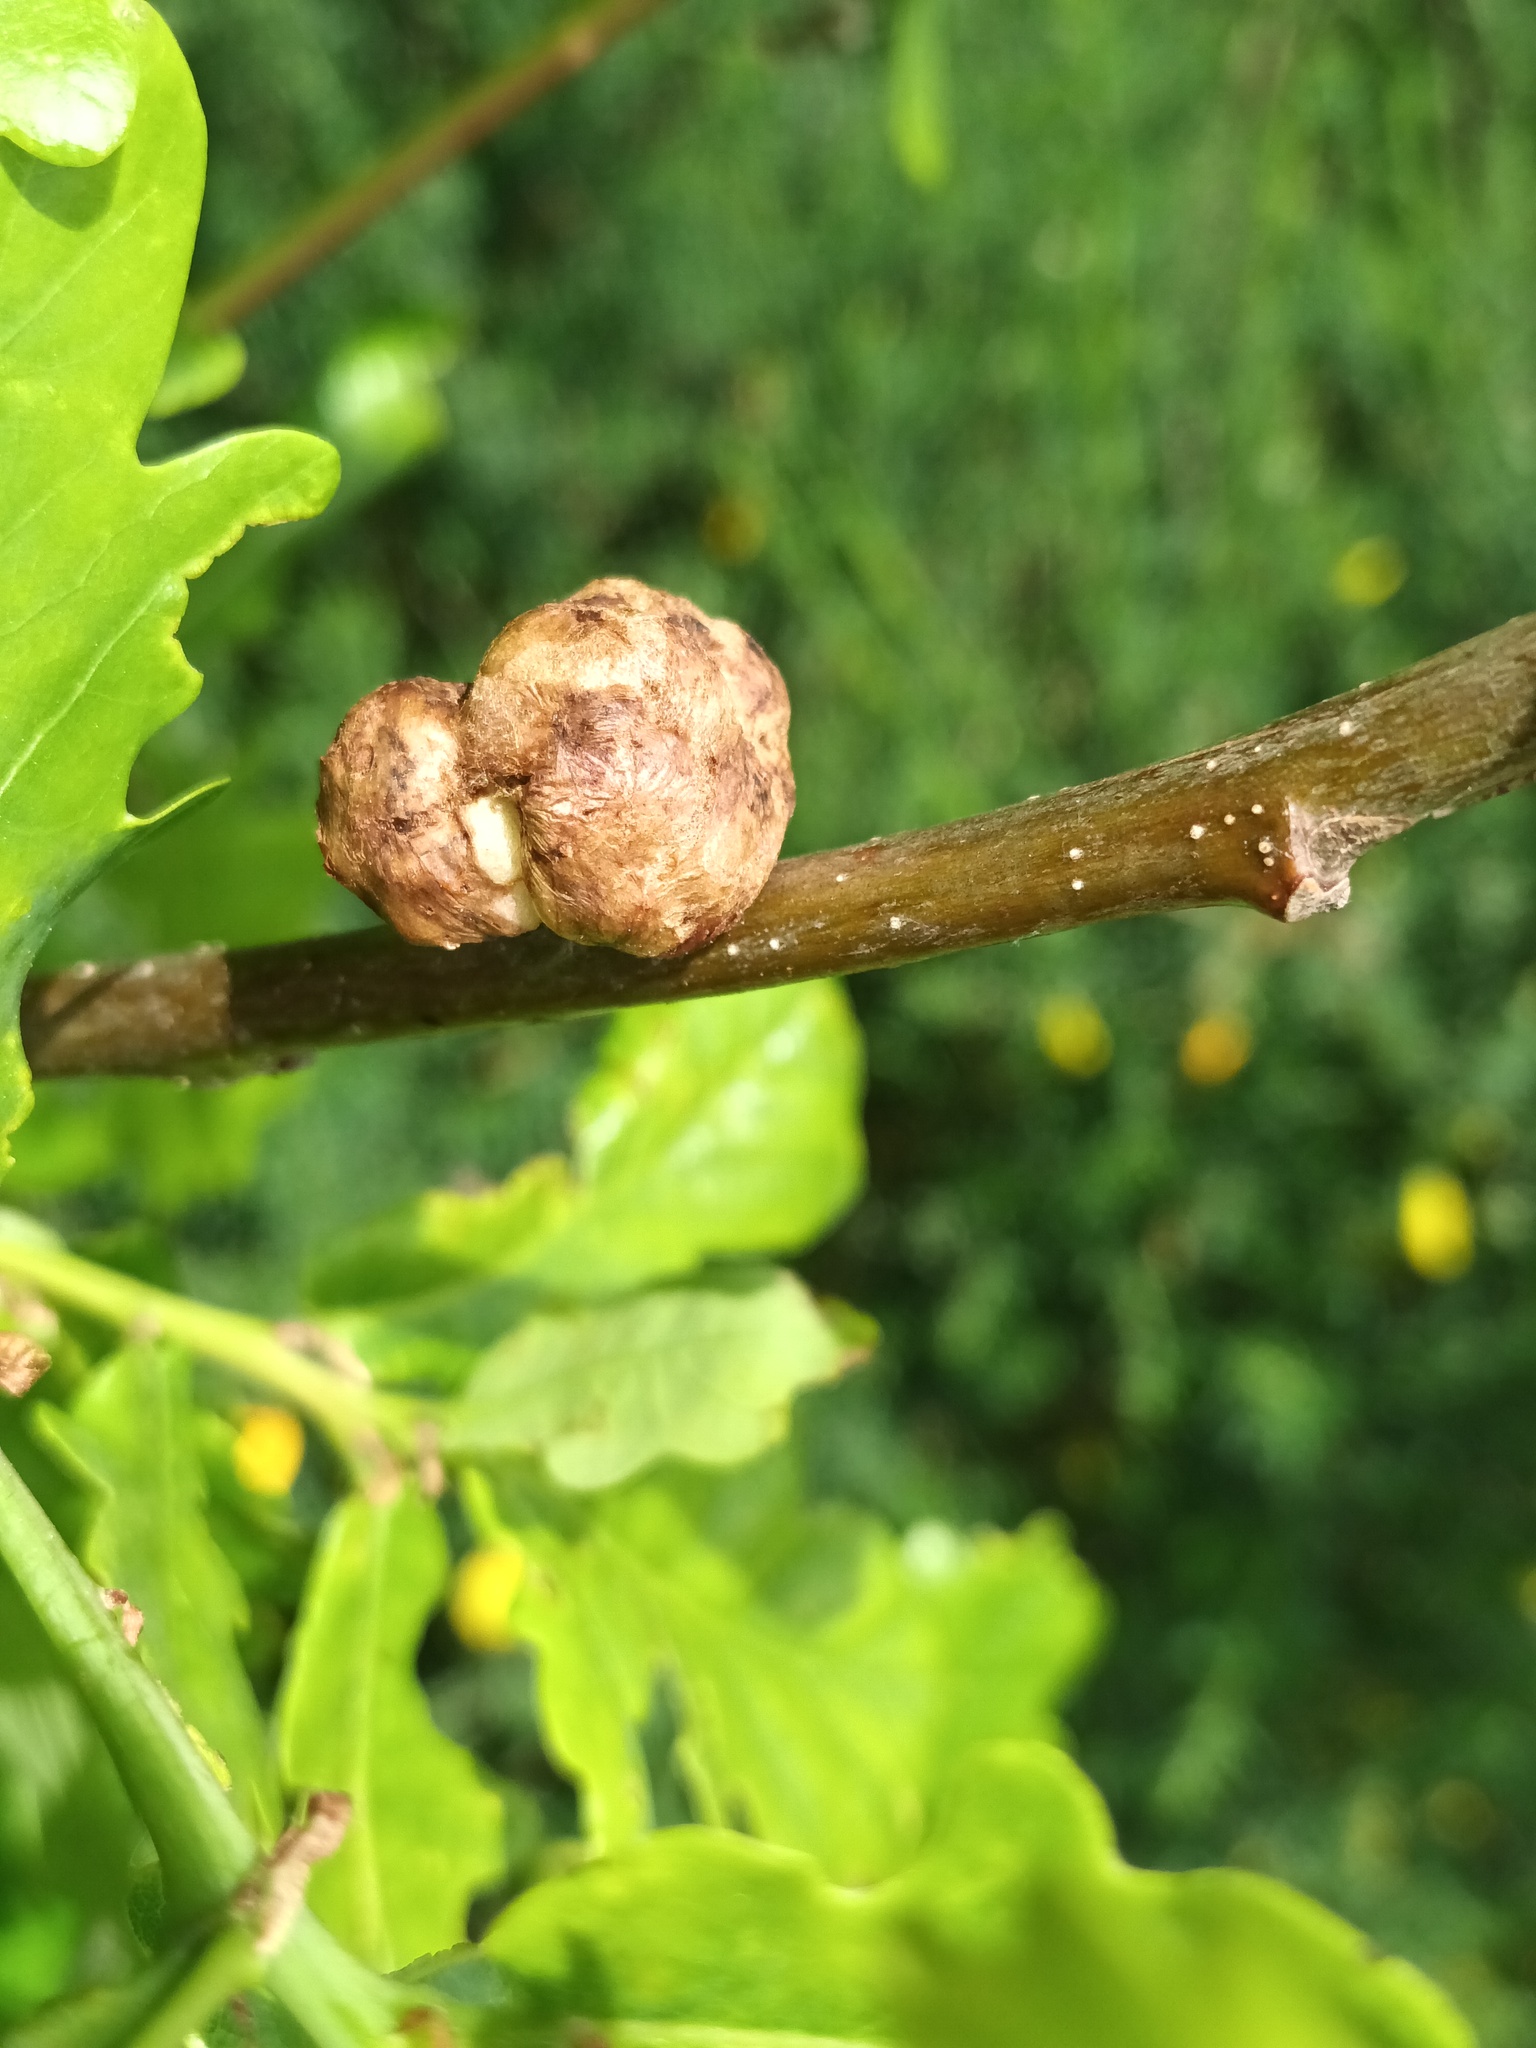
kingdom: Animalia
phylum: Arthropoda
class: Insecta
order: Hymenoptera
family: Cynipidae
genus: Biorhiza
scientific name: Biorhiza pallida
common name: Oak apple
